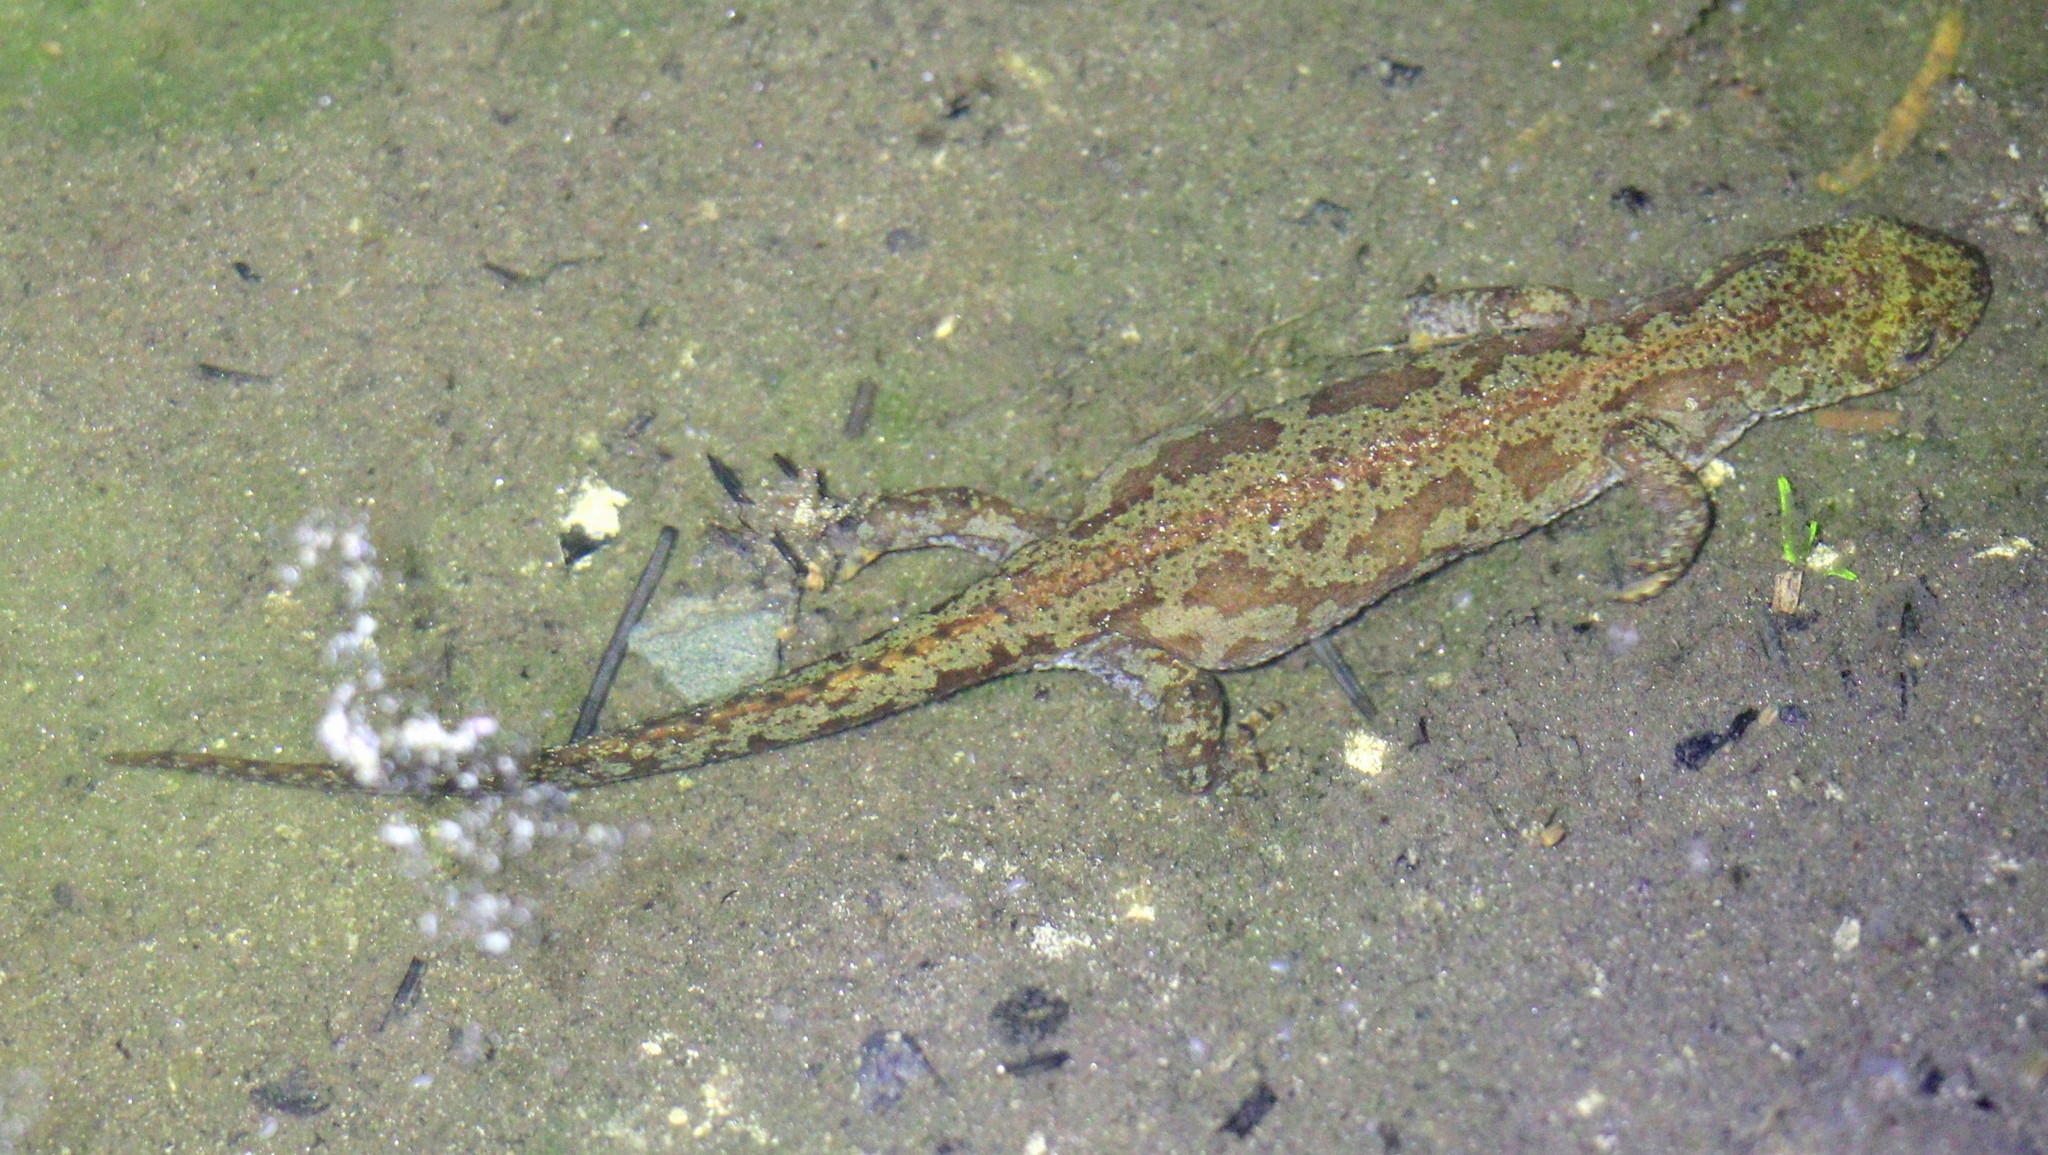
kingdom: Animalia
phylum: Chordata
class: Amphibia
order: Caudata
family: Salamandridae
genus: Ichthyosaura
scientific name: Ichthyosaura alpestris
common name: Alpine newt
